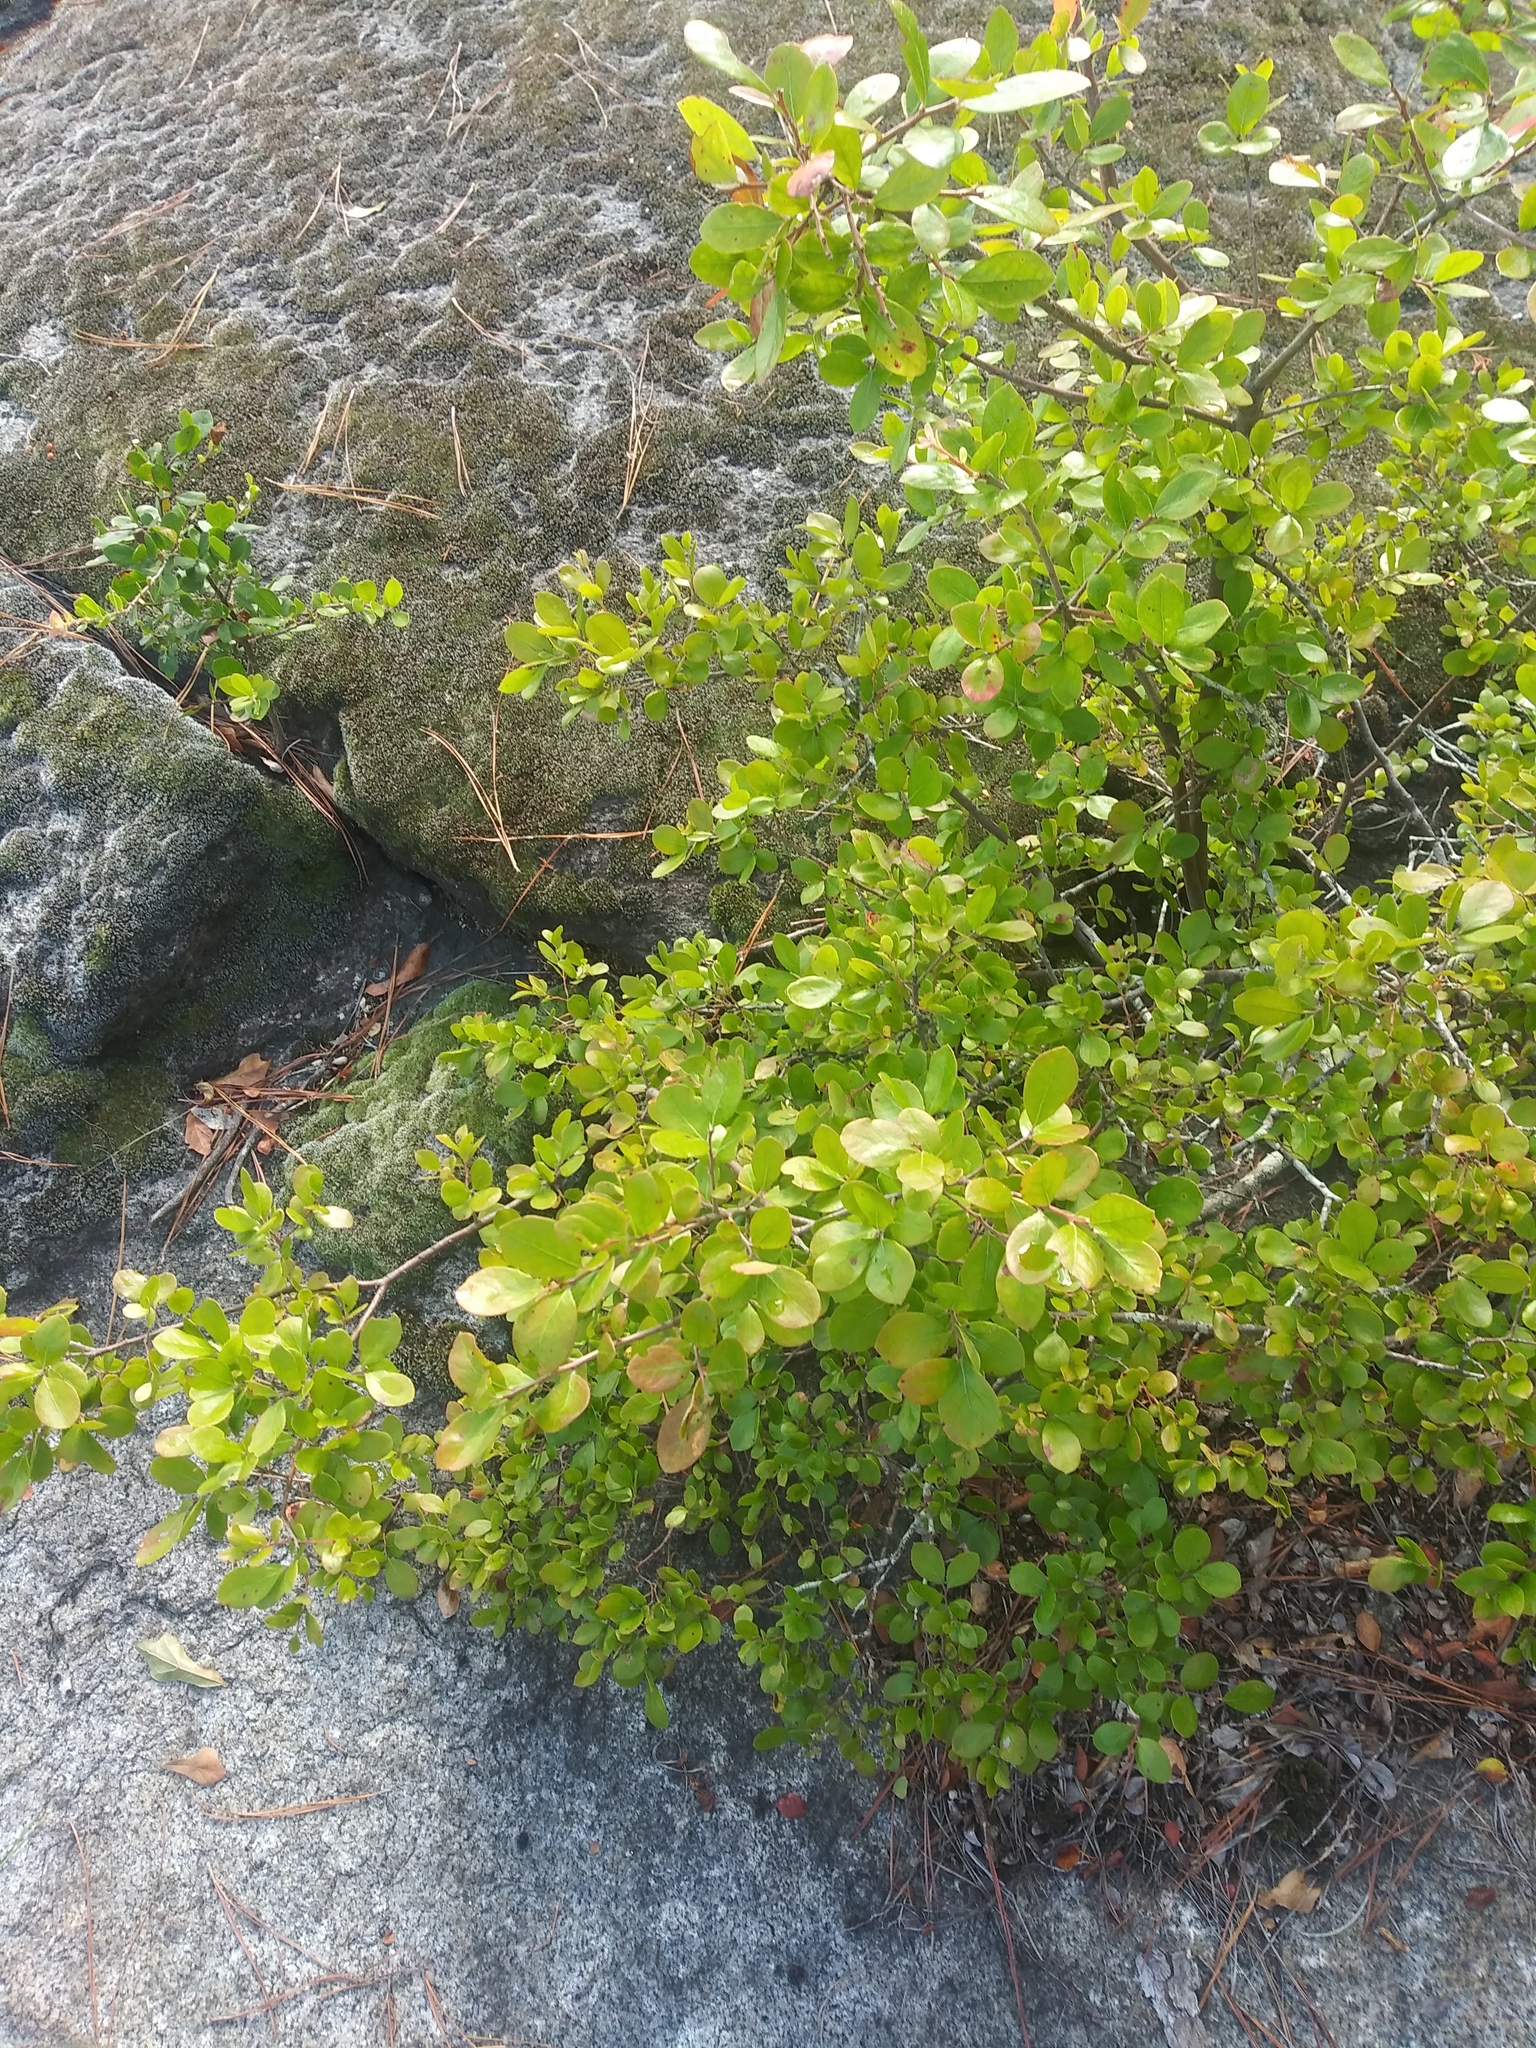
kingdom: Plantae
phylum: Tracheophyta
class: Magnoliopsida
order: Ericales
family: Ericaceae
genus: Vaccinium
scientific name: Vaccinium arboreum
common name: Farkleberry
